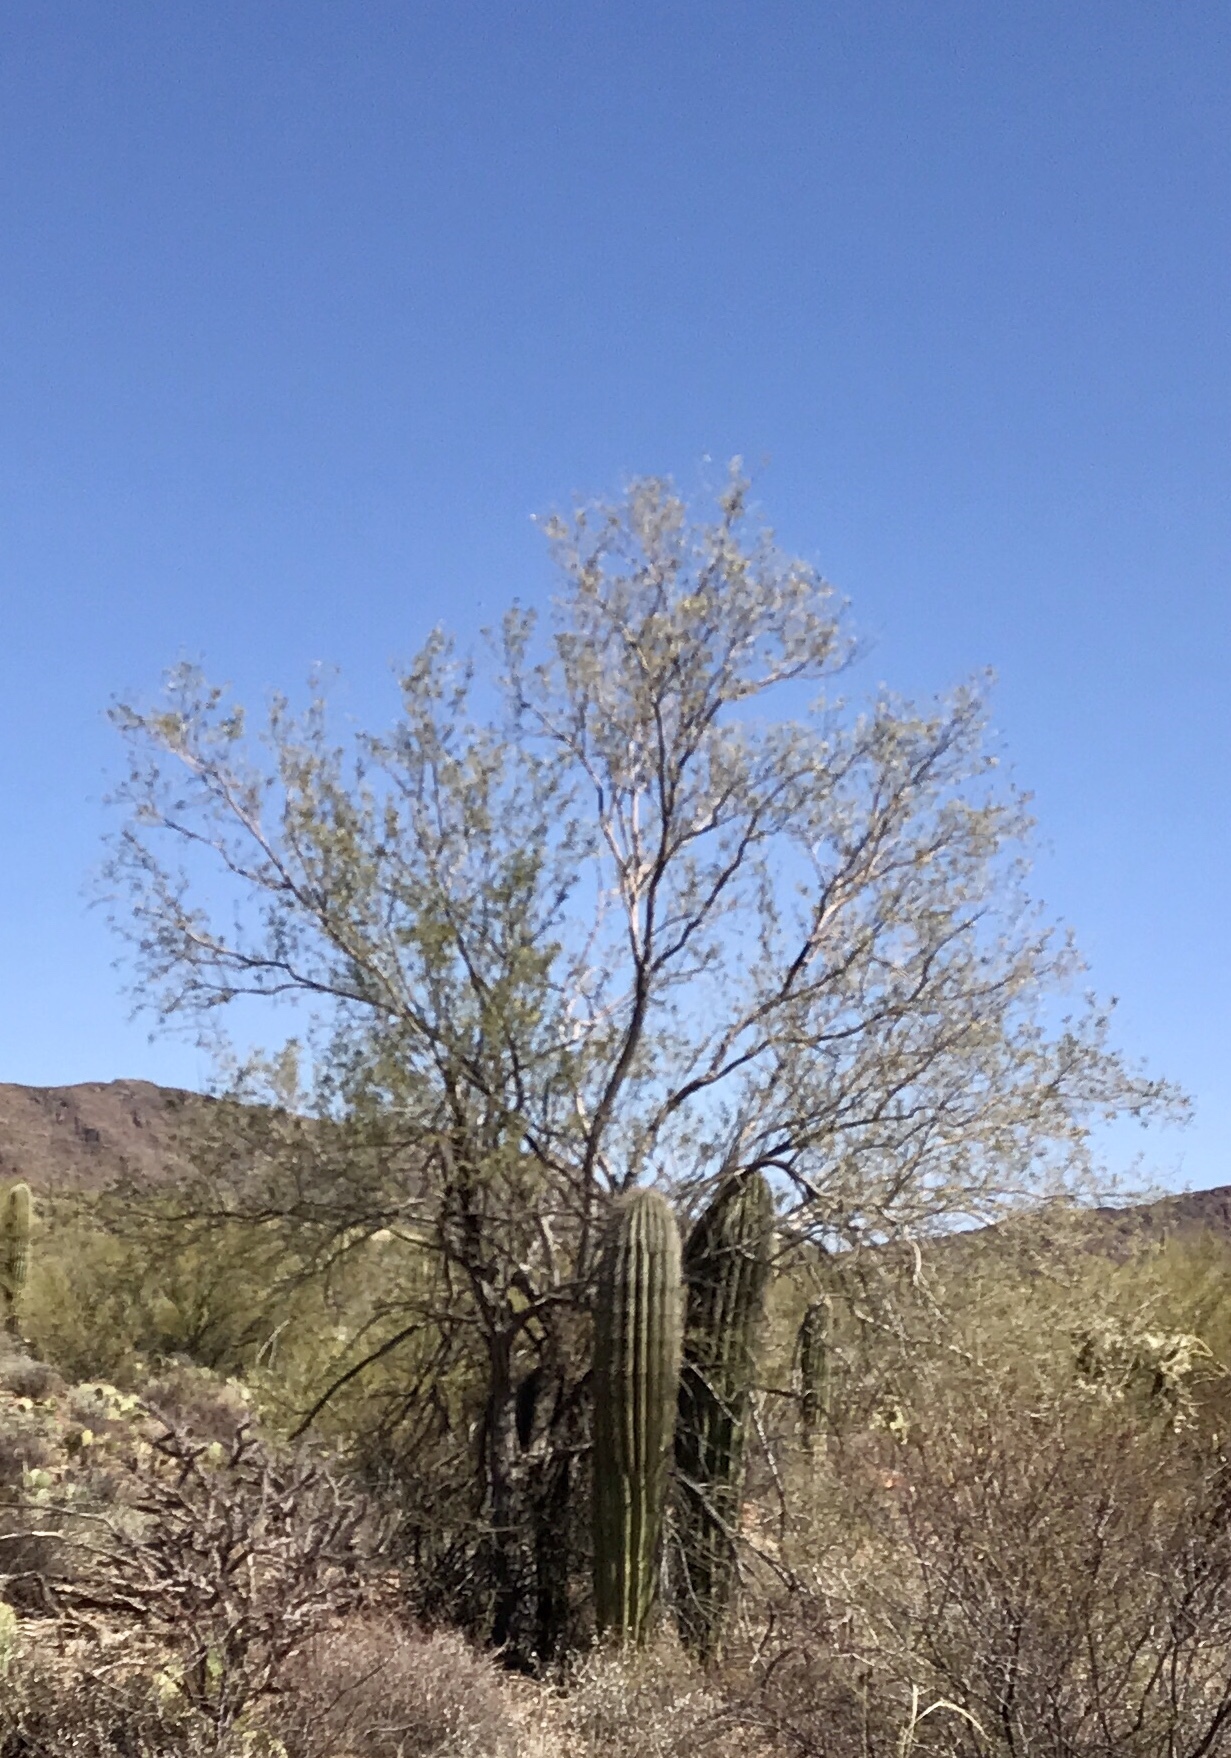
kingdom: Plantae
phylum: Tracheophyta
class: Magnoliopsida
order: Fabales
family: Fabaceae
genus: Olneya
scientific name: Olneya tesota
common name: Desert ironwood
